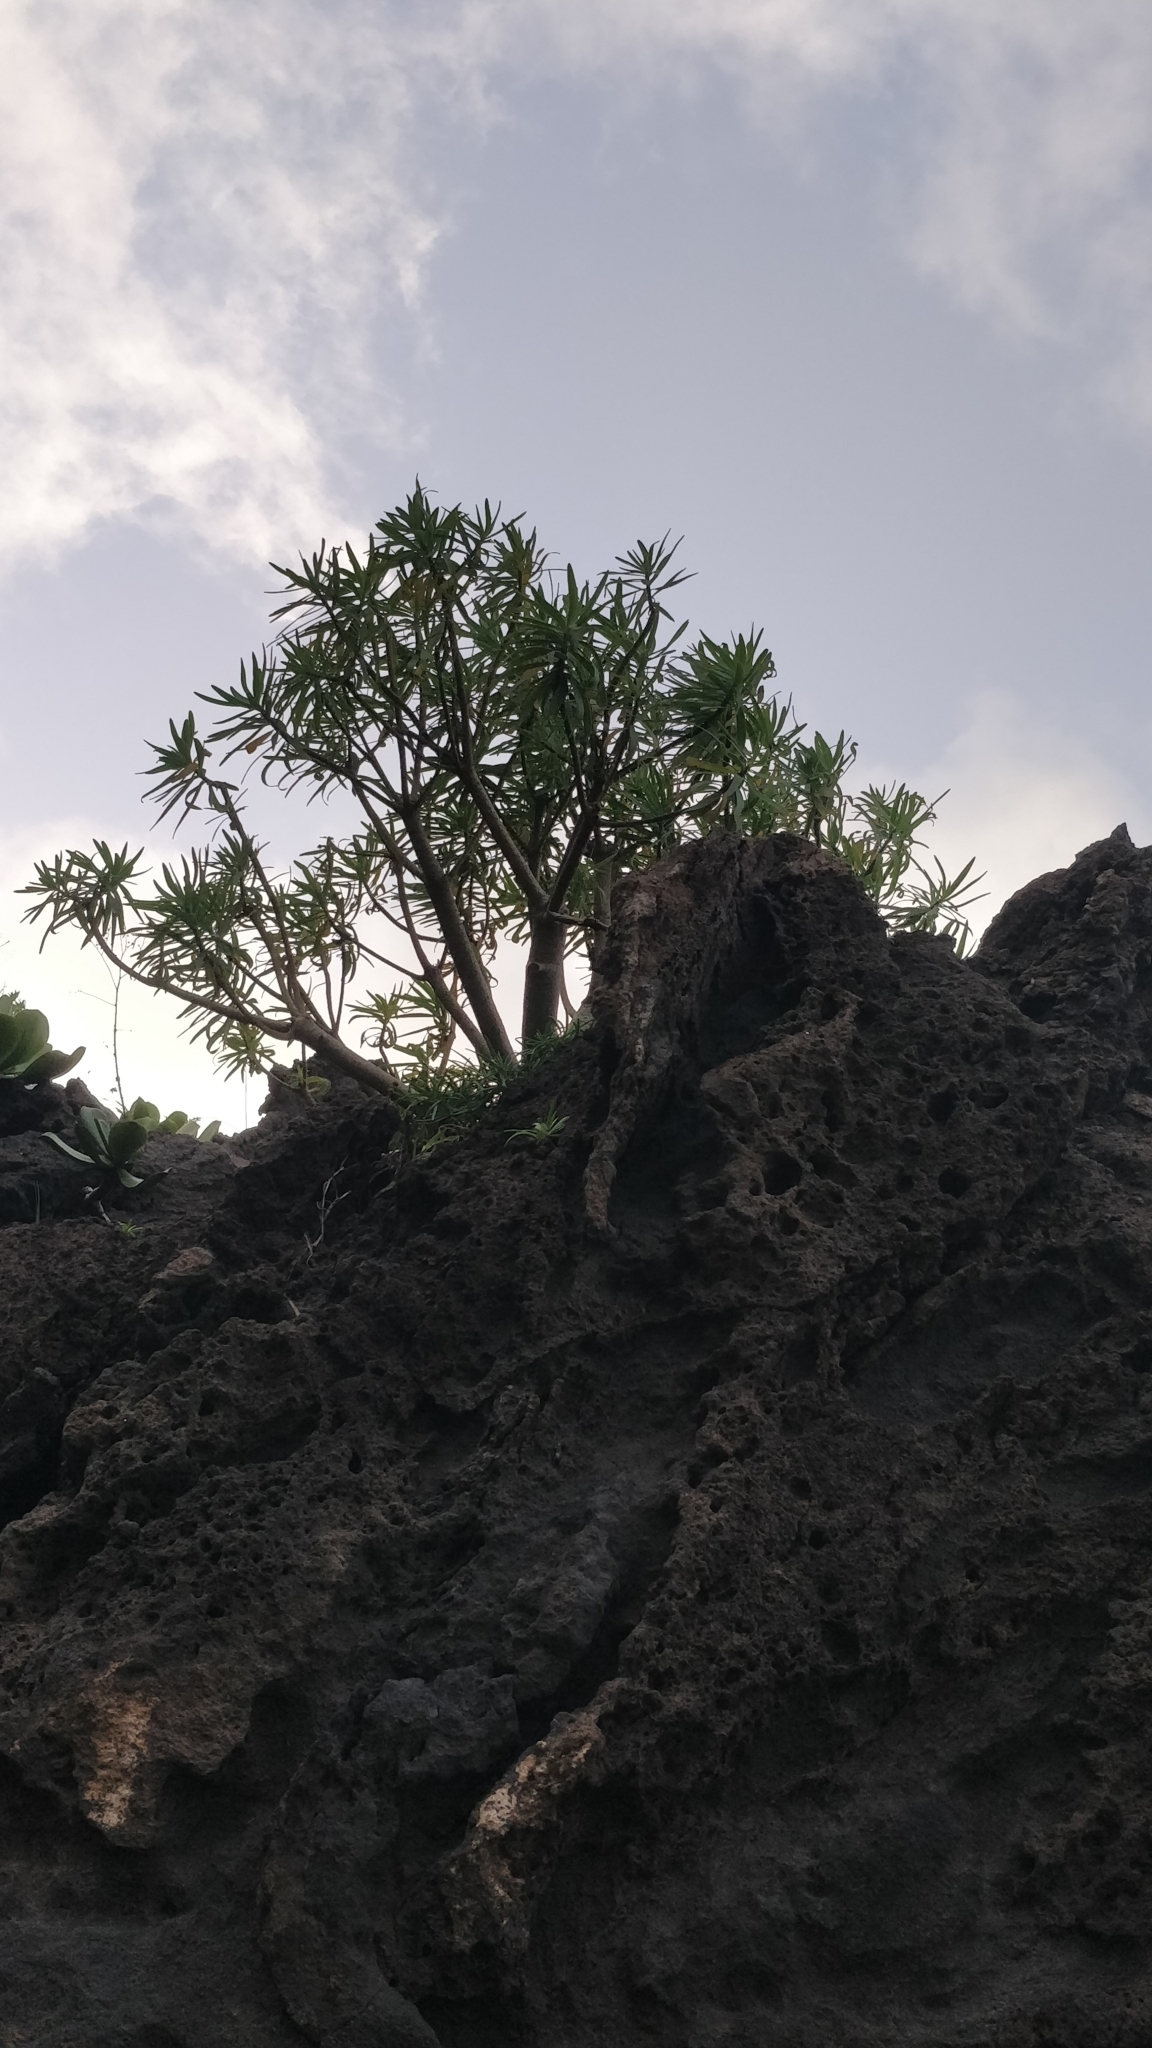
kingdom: Plantae
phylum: Tracheophyta
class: Magnoliopsida
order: Malpighiales
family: Euphorbiaceae
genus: Euphorbia
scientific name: Euphorbia piscatoria
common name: Fish-stunning spurge
